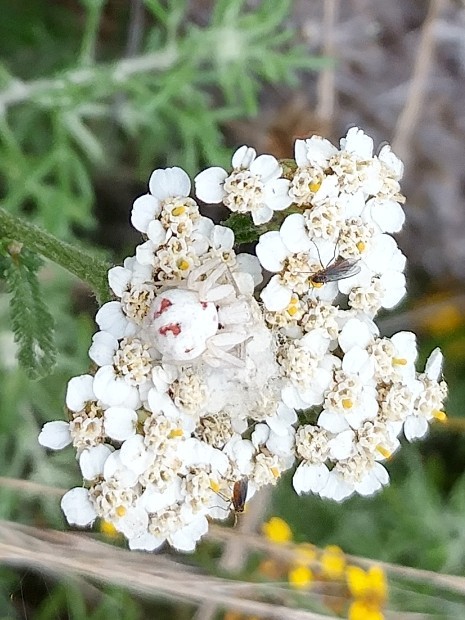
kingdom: Animalia
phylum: Arthropoda
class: Arachnida
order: Araneae
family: Thomisidae
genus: Misumena
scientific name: Misumena vatia
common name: Goldenrod crab spider
